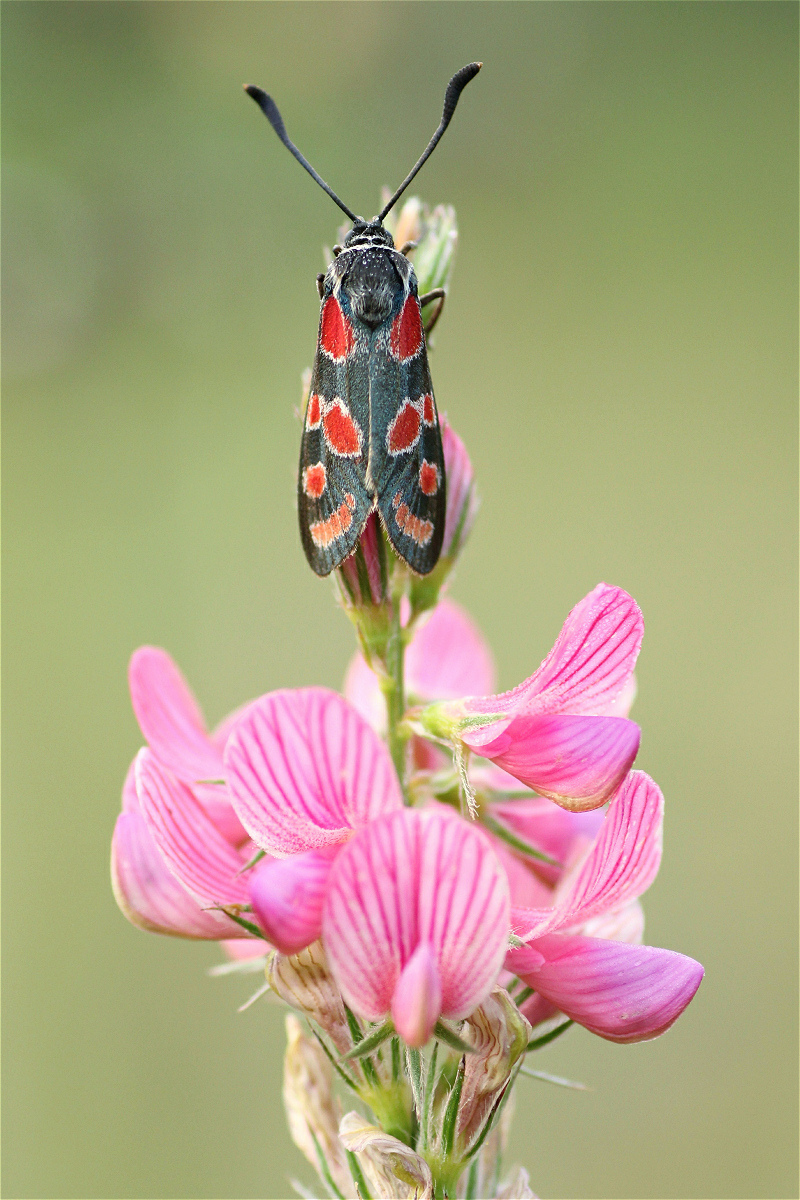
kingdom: Animalia
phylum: Arthropoda
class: Insecta
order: Lepidoptera
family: Zygaenidae
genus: Zygaena
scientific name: Zygaena carniolica
